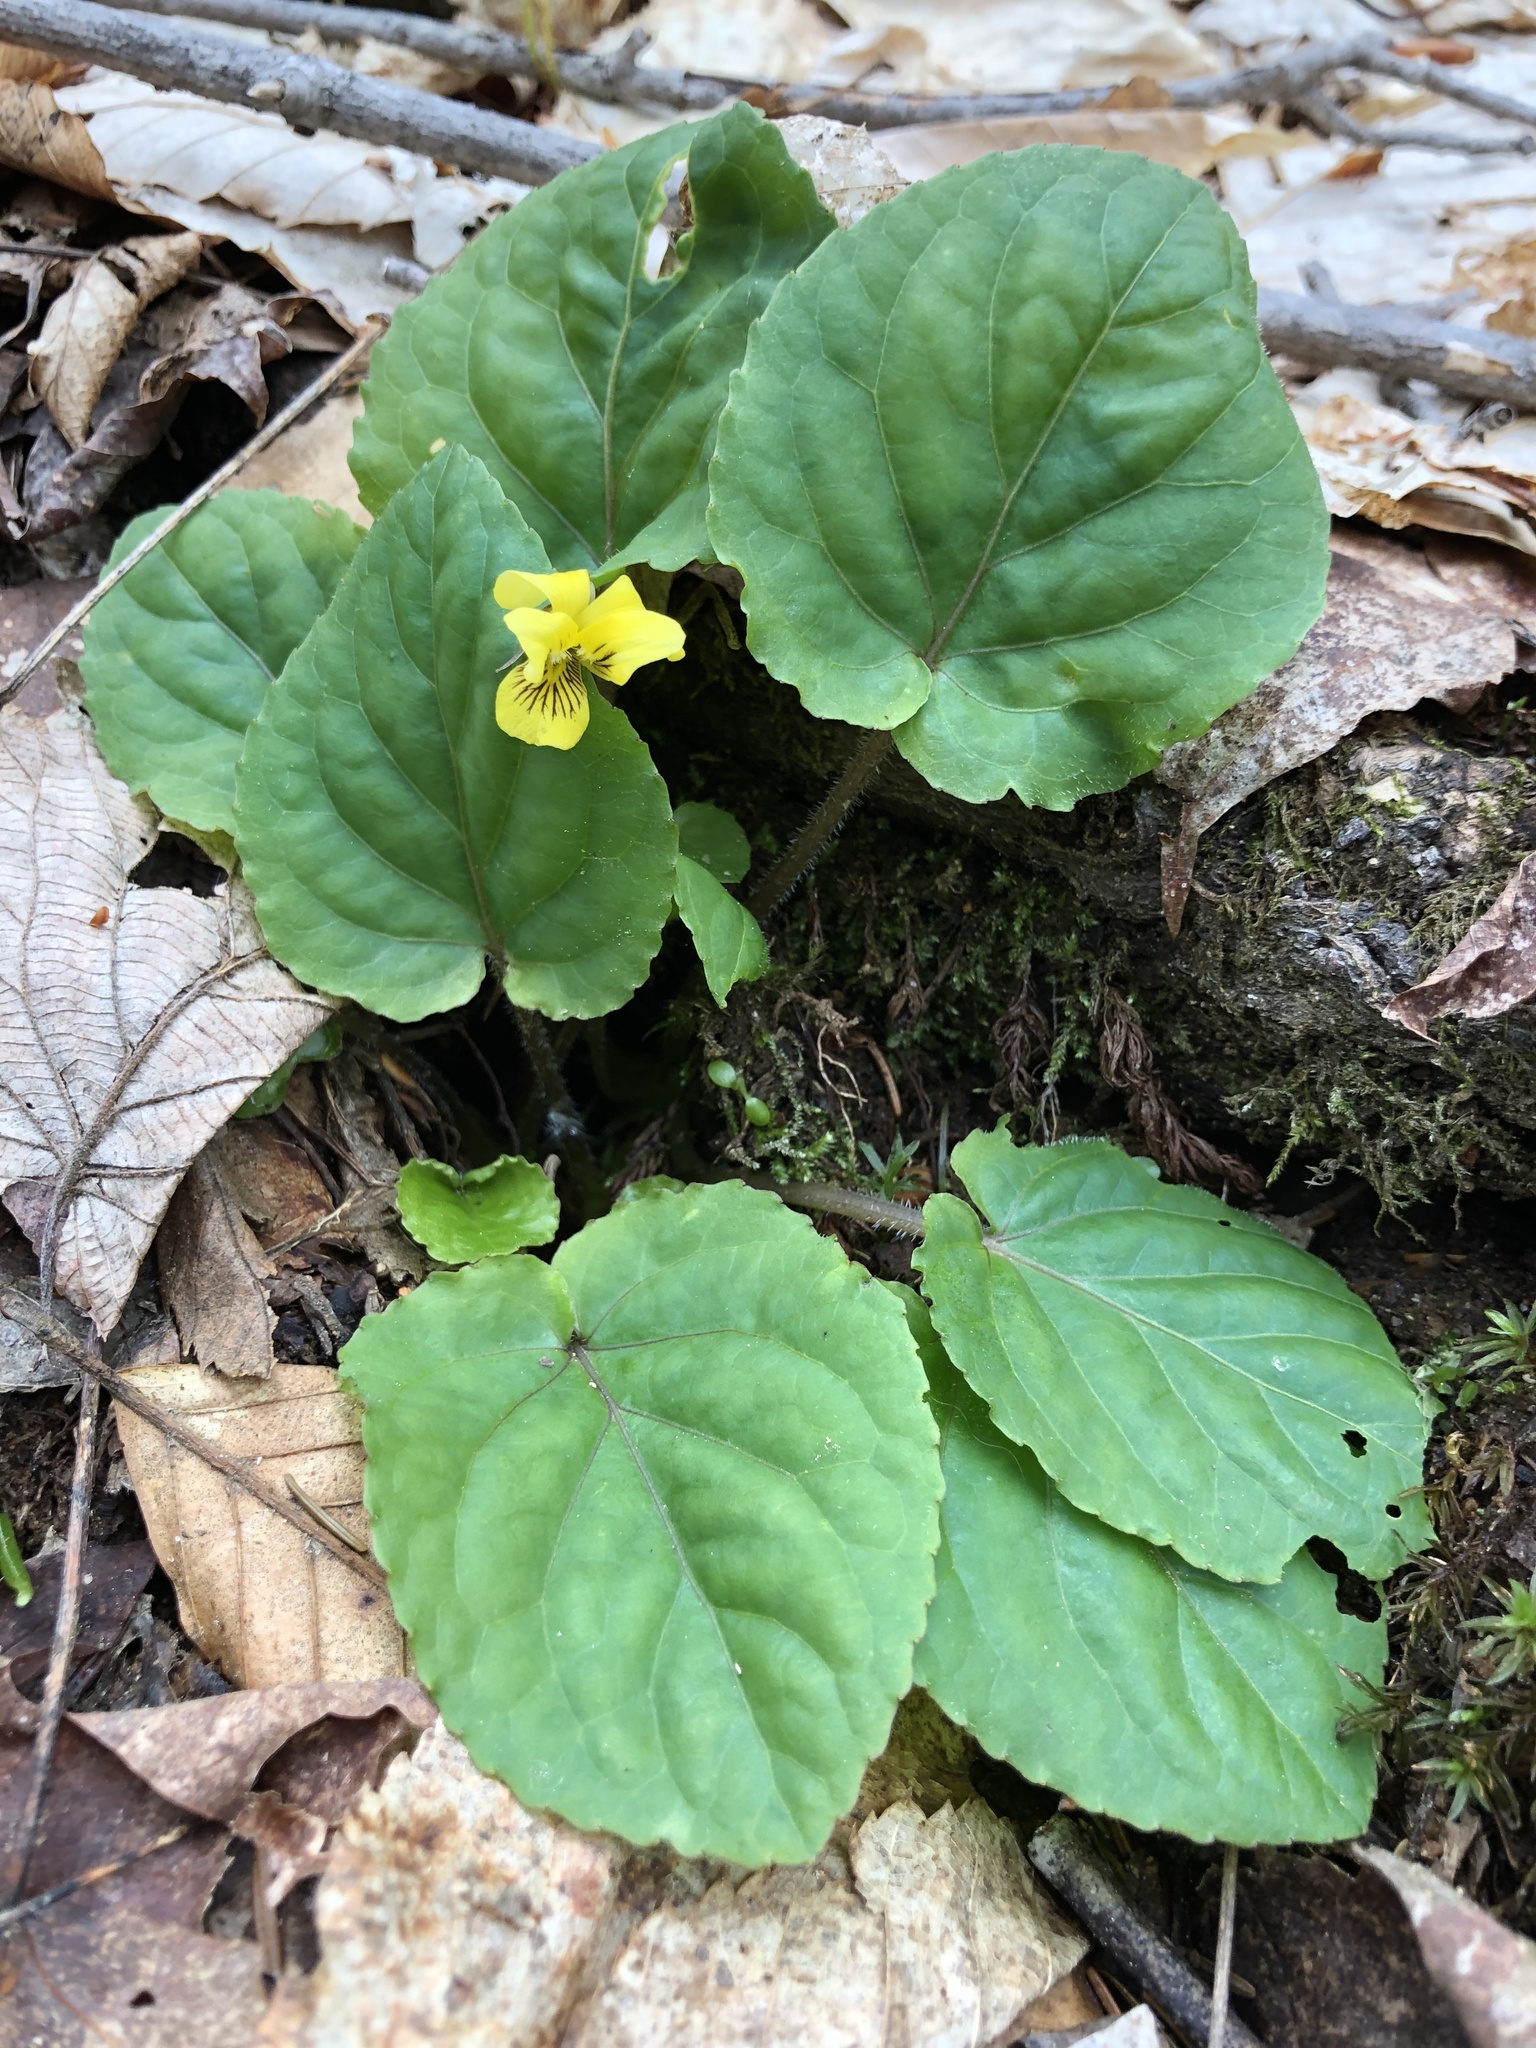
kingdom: Plantae
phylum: Tracheophyta
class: Magnoliopsida
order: Malpighiales
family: Violaceae
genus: Viola
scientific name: Viola rotundifolia
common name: Early yellow violet
